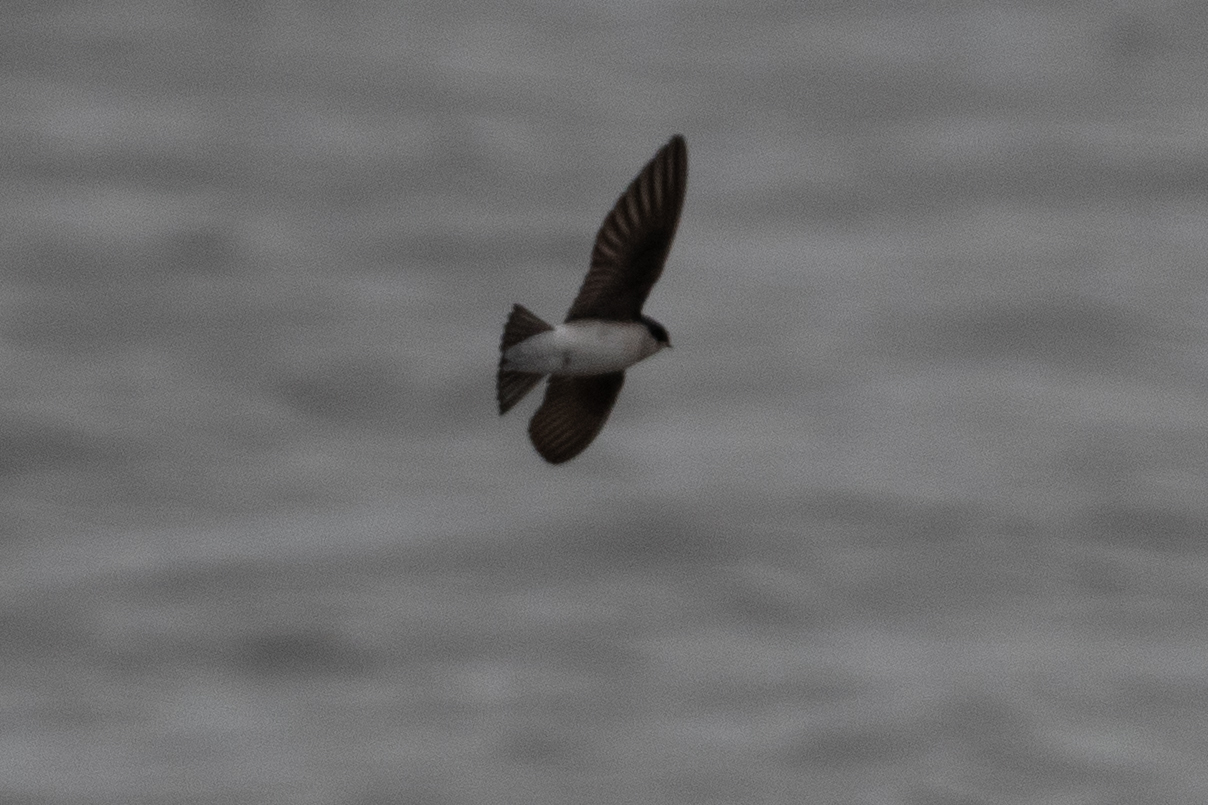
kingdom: Animalia
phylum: Chordata
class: Aves
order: Passeriformes
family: Hirundinidae
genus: Tachycineta
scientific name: Tachycineta bicolor
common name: Tree swallow
